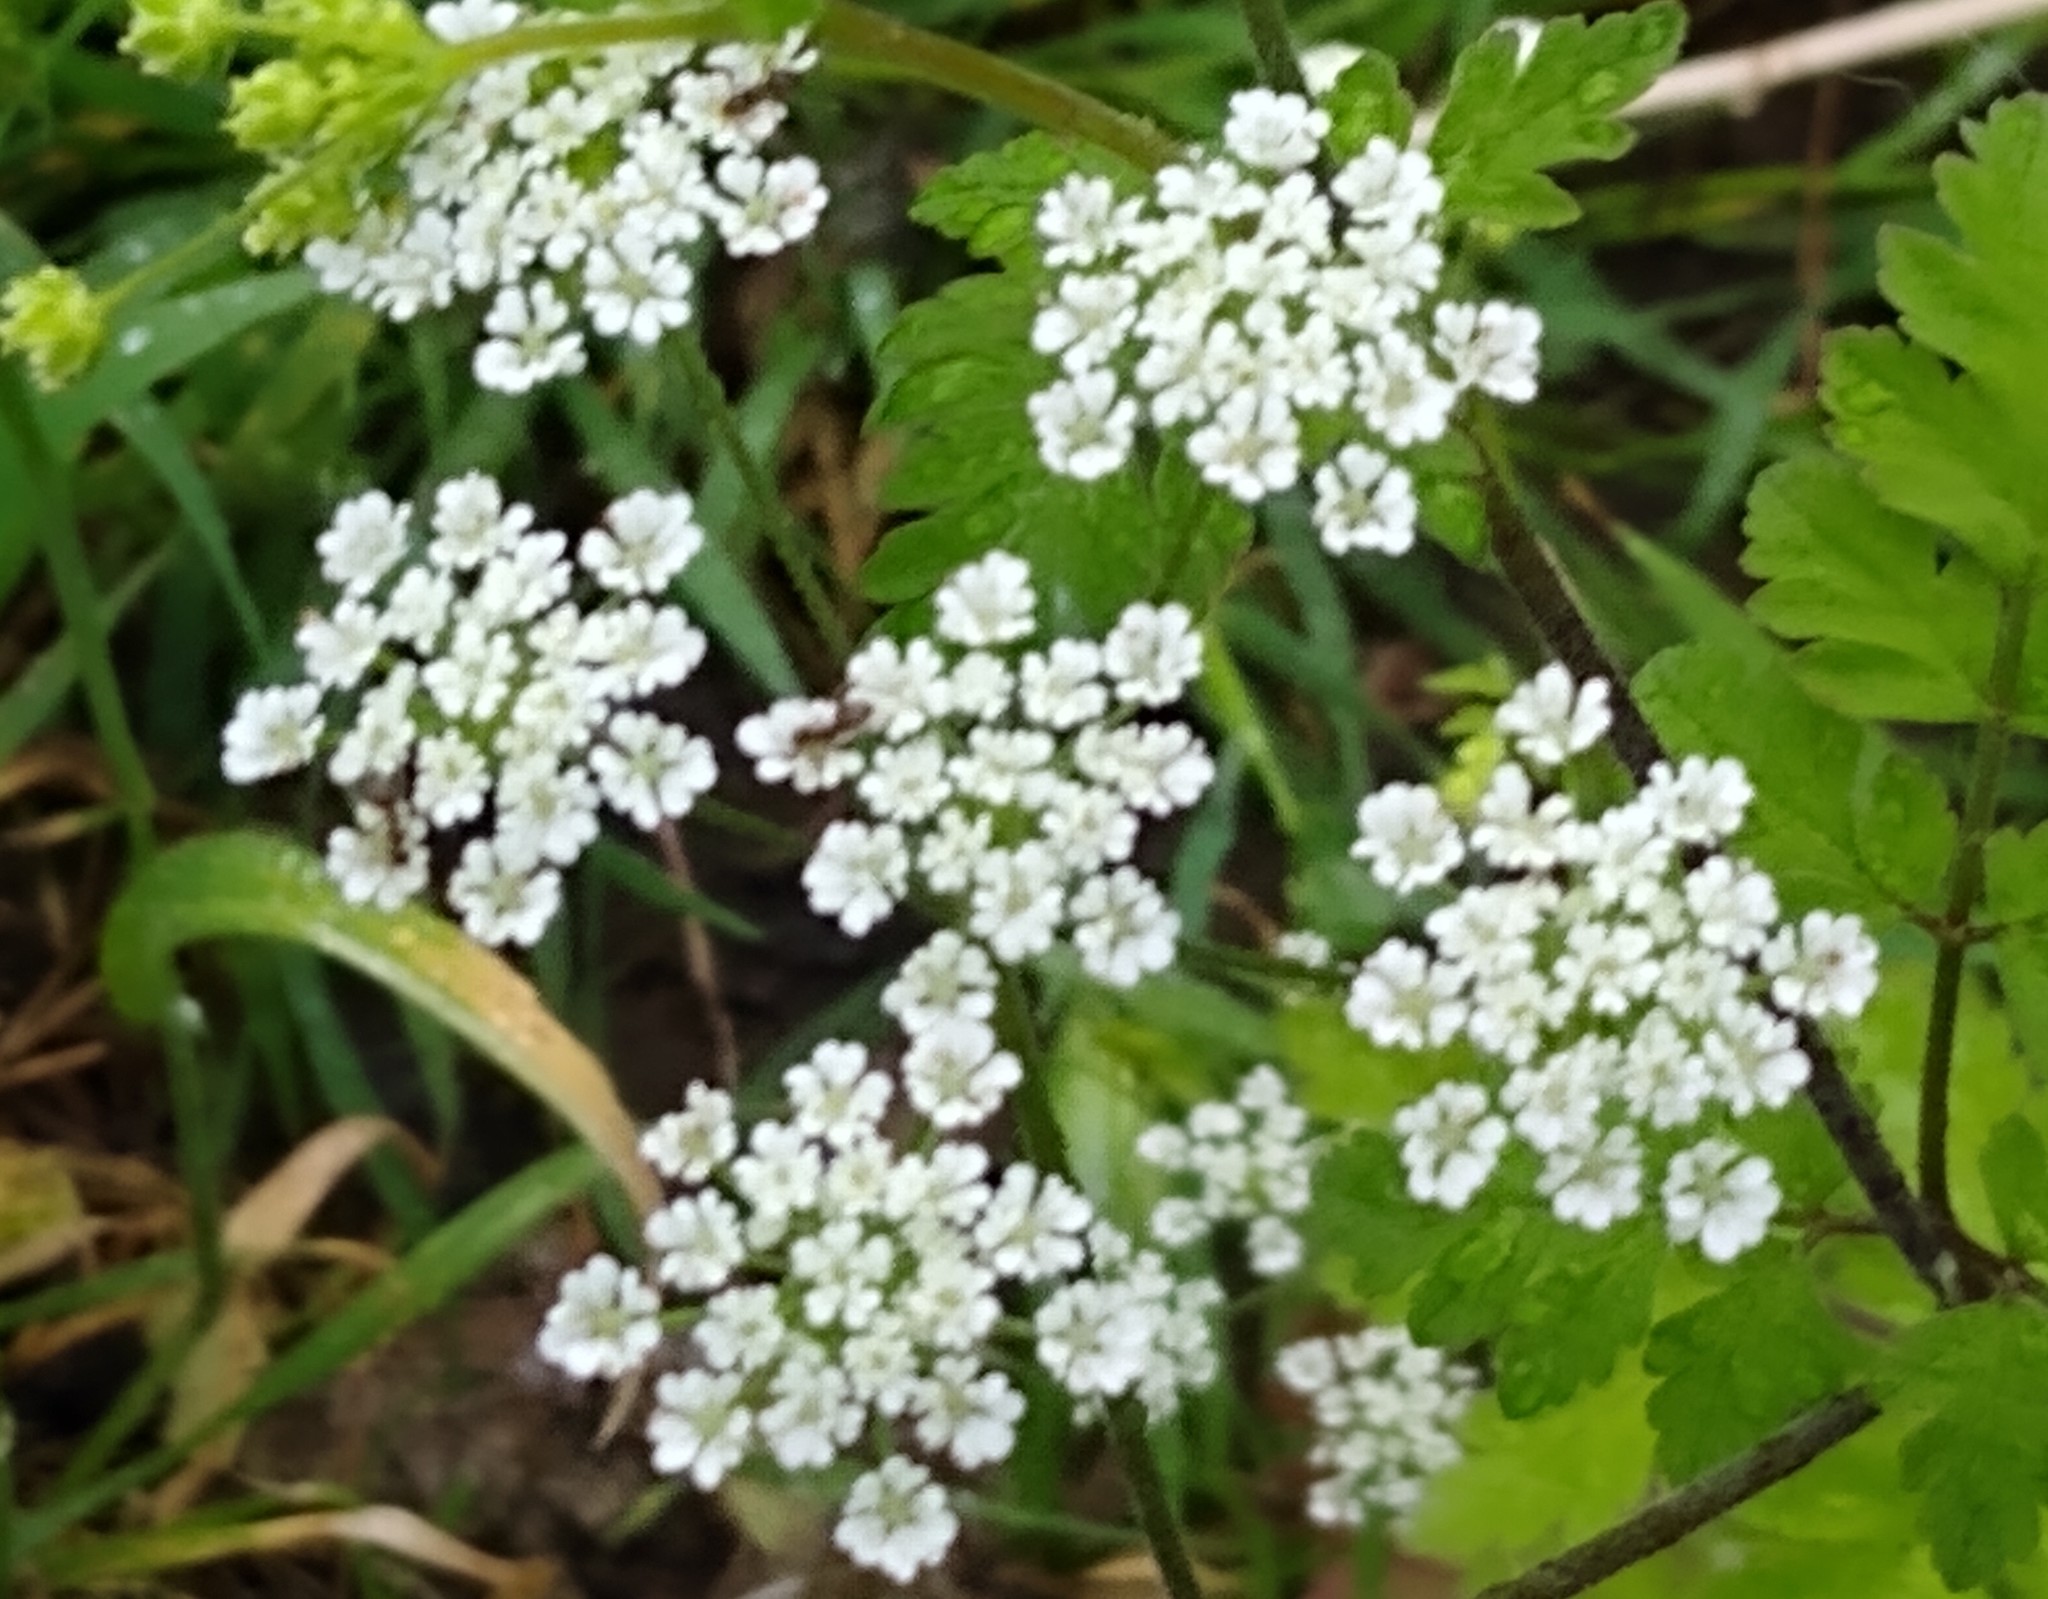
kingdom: Plantae
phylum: Tracheophyta
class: Magnoliopsida
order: Apiales
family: Apiaceae
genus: Chaerophyllum
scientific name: Chaerophyllum temulum
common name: Rough chervil
